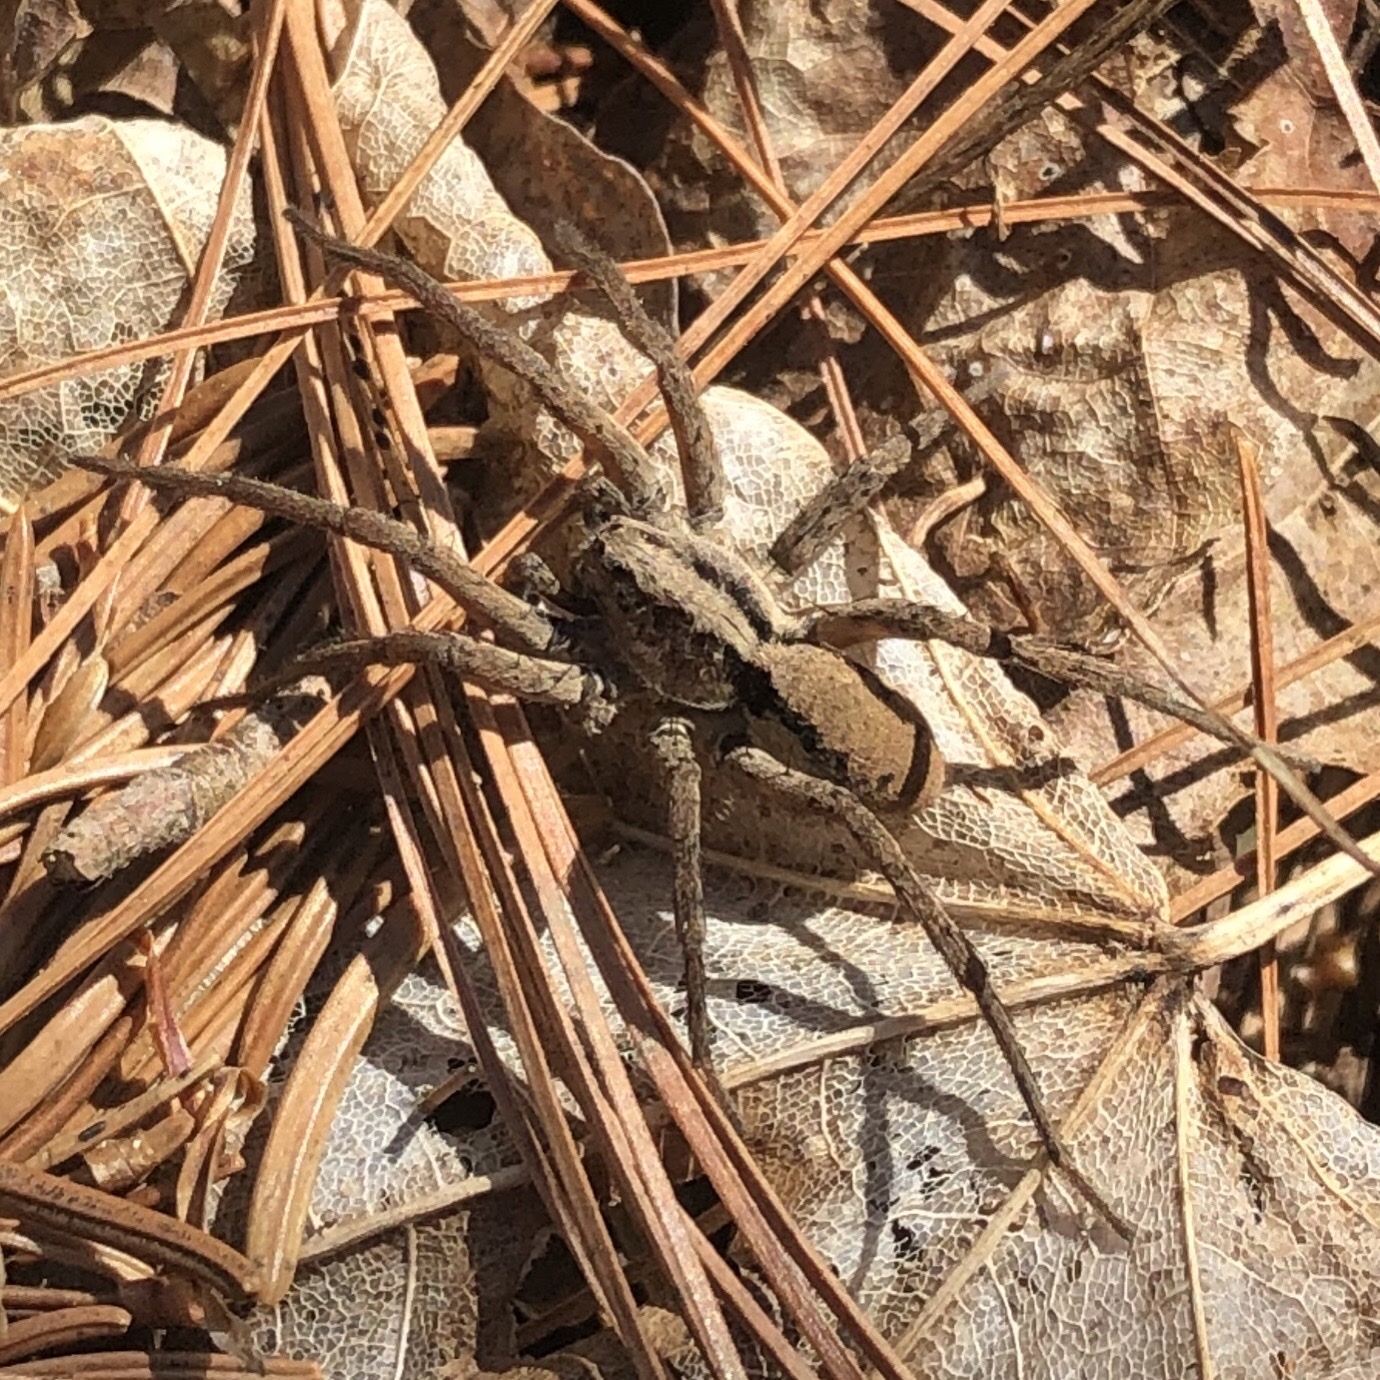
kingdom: Animalia
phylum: Arthropoda
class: Arachnida
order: Araneae
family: Lycosidae
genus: Gladicosa
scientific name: Gladicosa gulosa
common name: Drumming sword wolf spider
